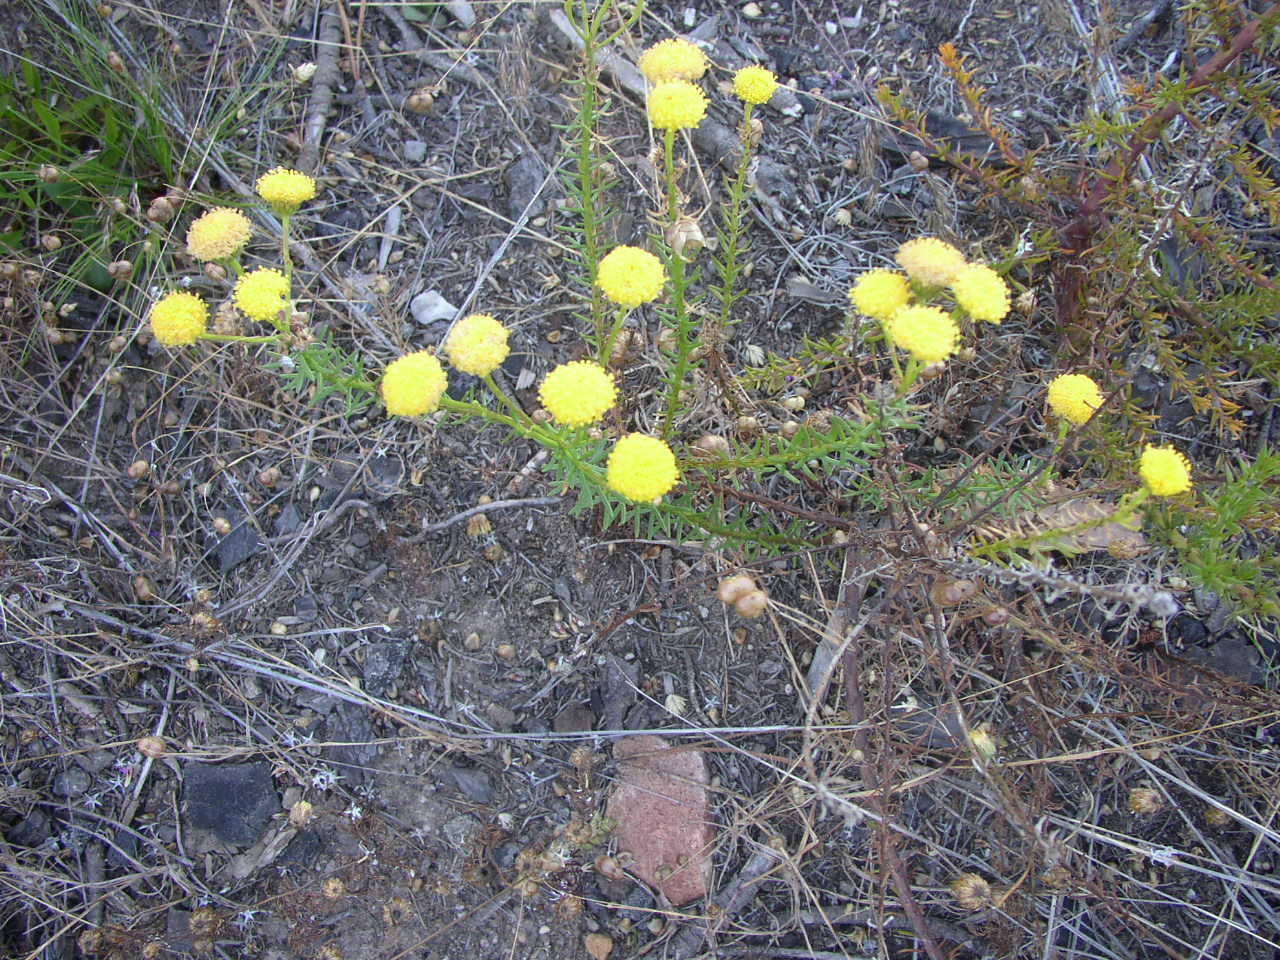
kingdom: Plantae
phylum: Tracheophyta
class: Magnoliopsida
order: Asterales
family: Asteraceae
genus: Chrysocoma
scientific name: Chrysocoma cernua
